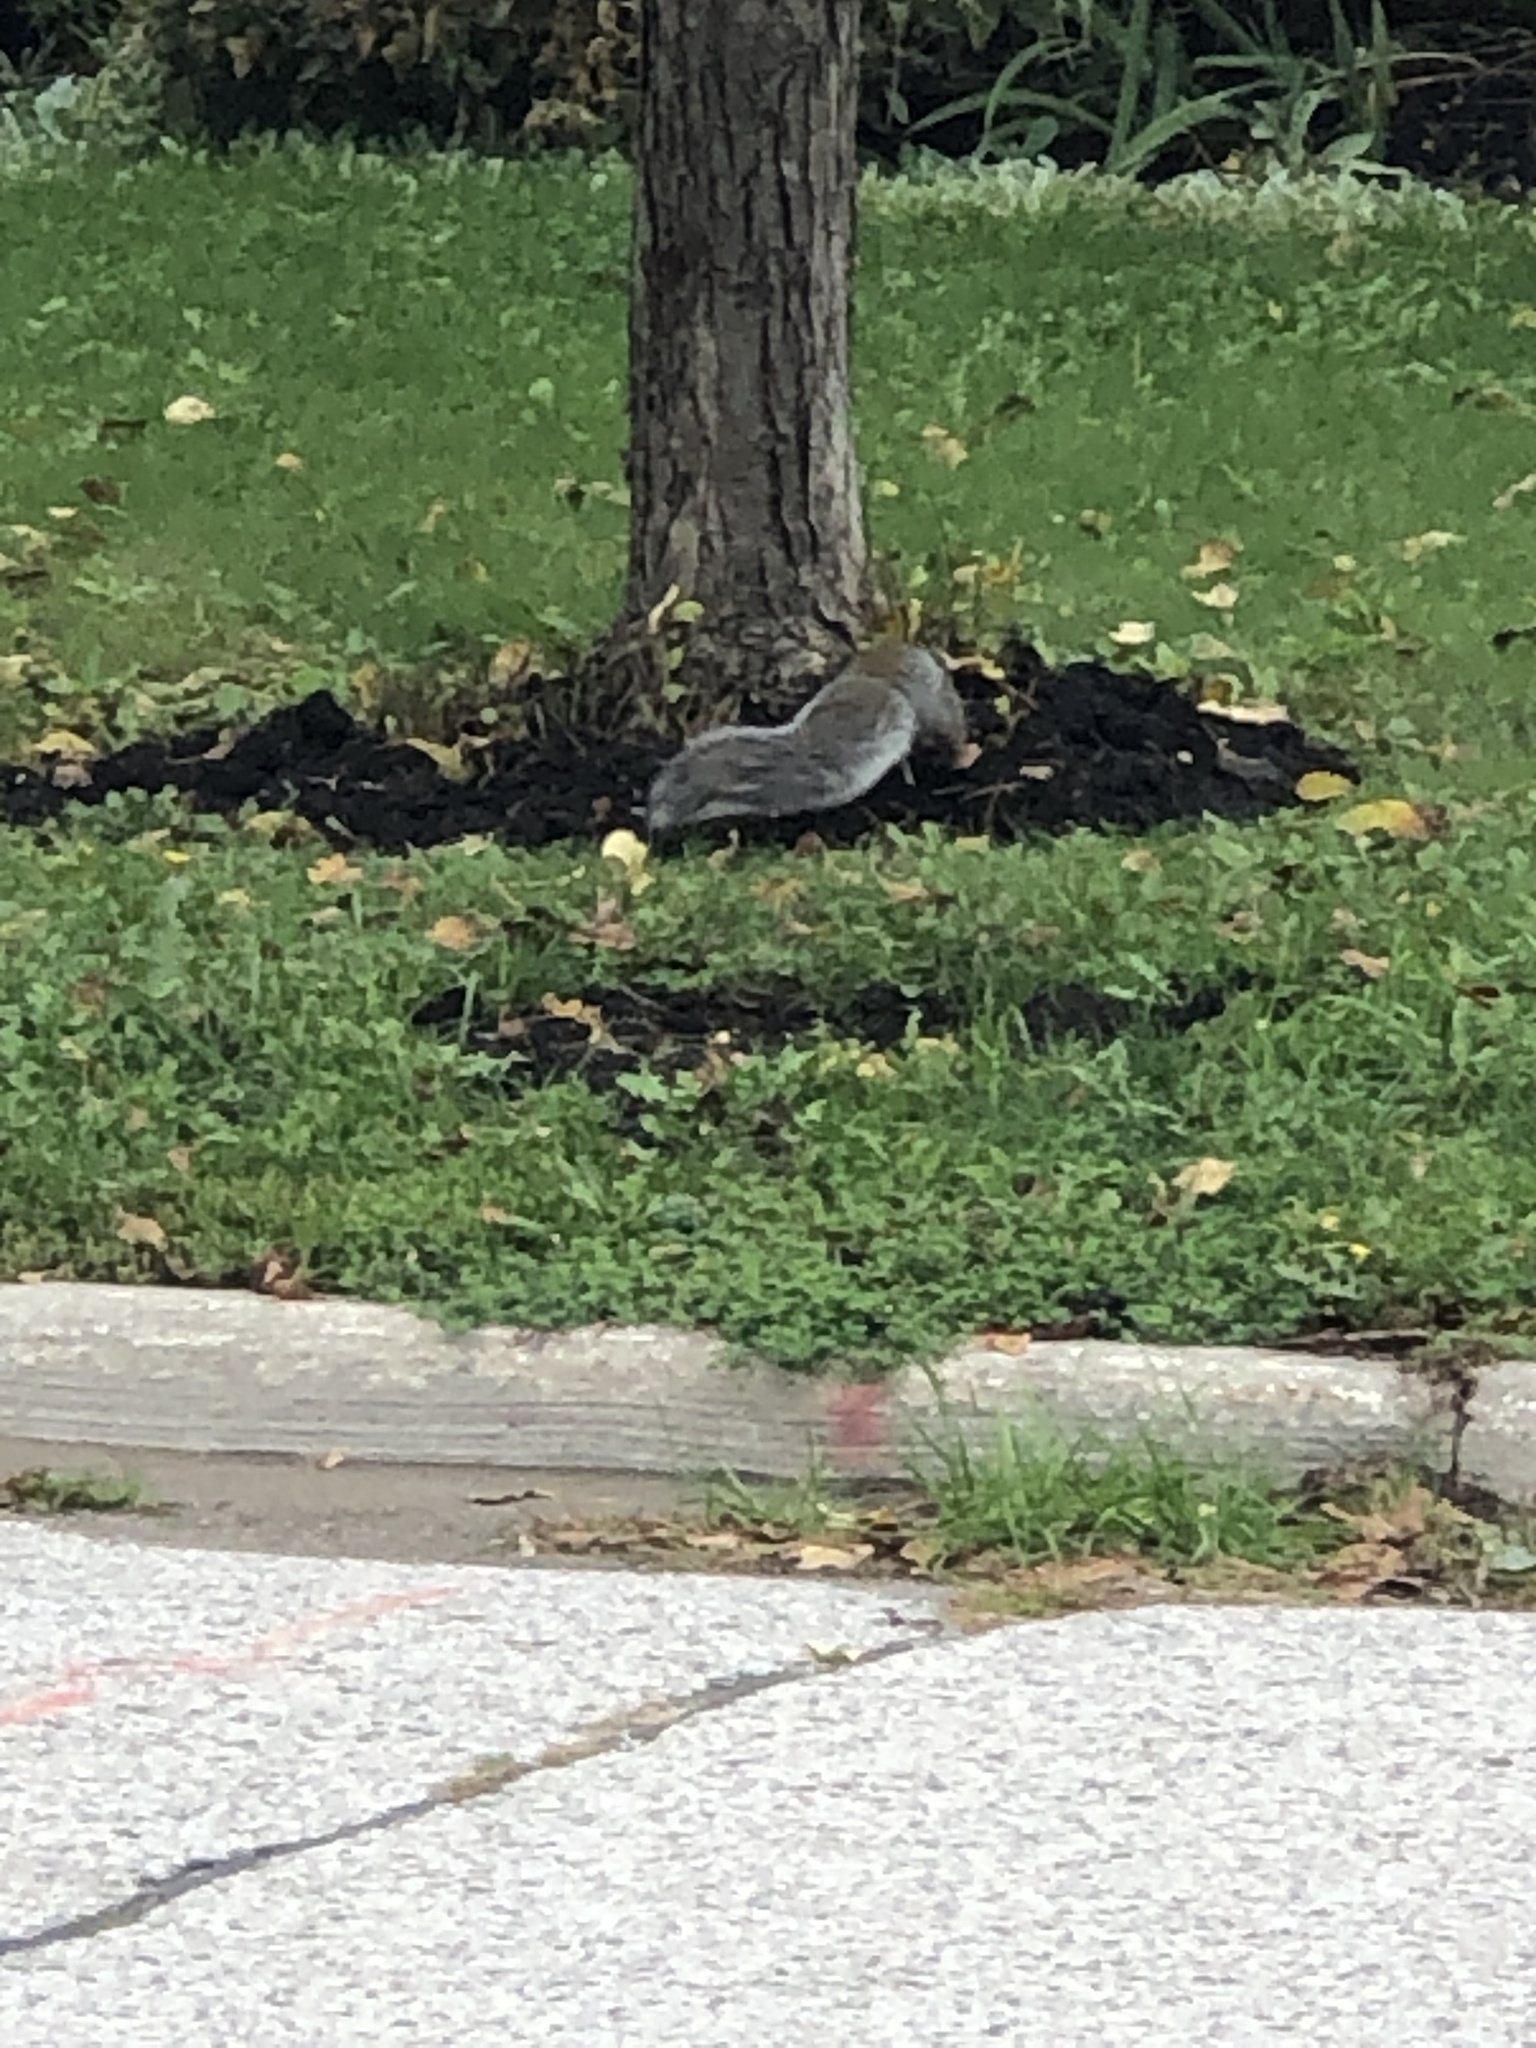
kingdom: Animalia
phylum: Chordata
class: Mammalia
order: Rodentia
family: Sciuridae
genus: Sciurus
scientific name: Sciurus carolinensis
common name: Eastern gray squirrel
